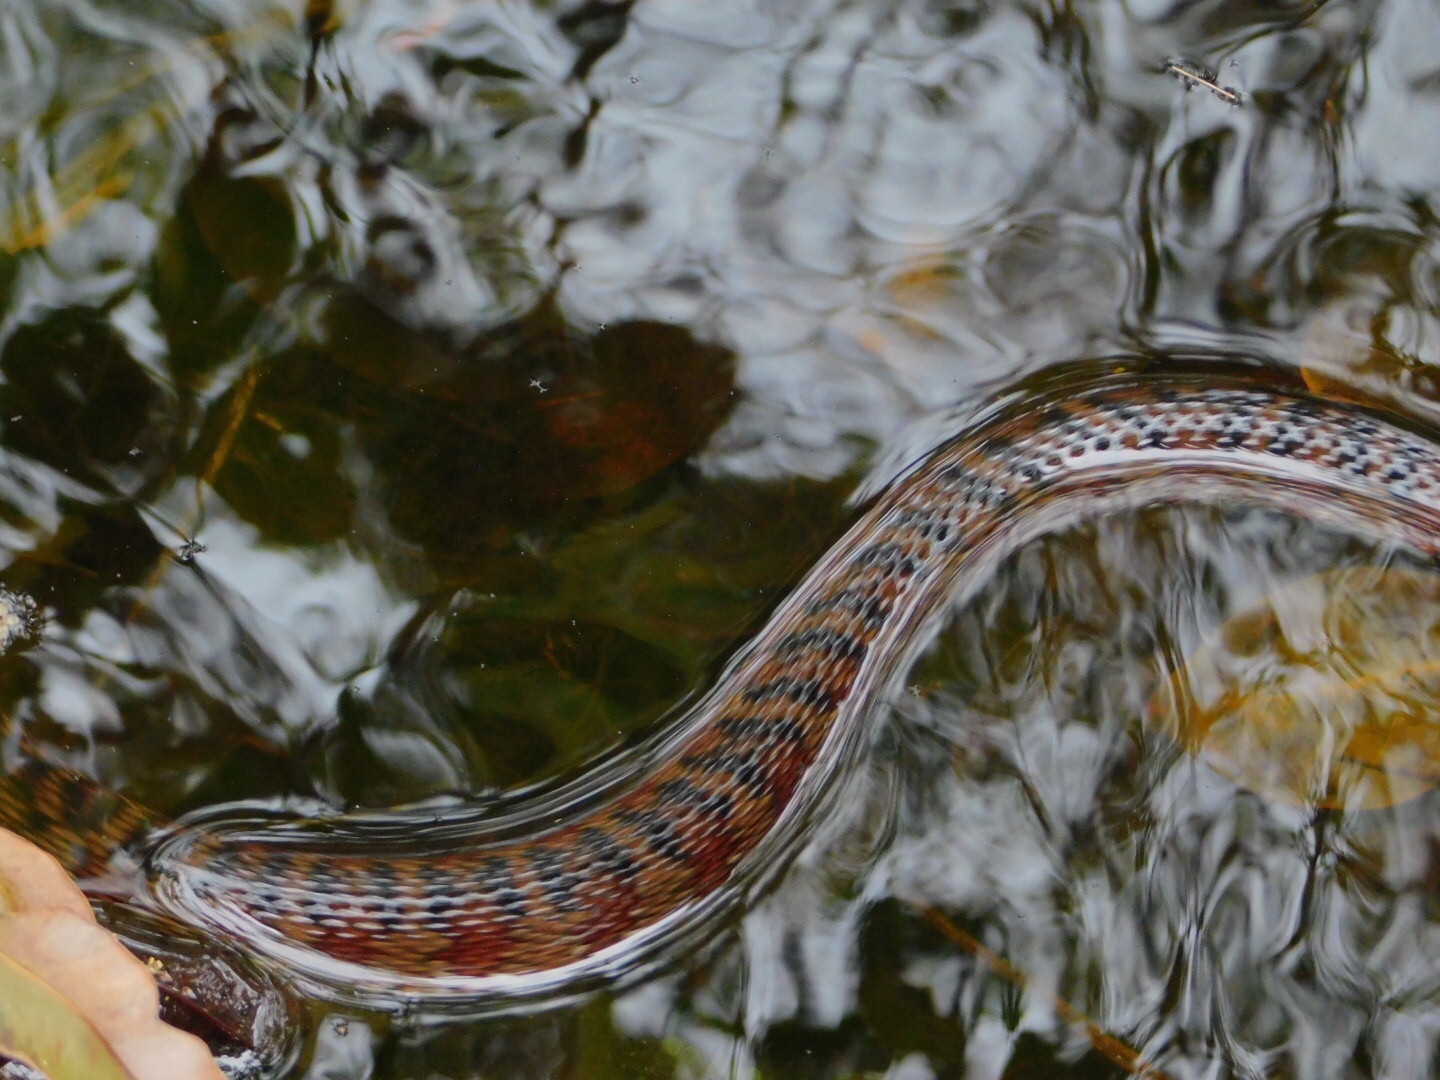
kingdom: Animalia
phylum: Chordata
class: Squamata
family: Colubridae
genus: Nerodia
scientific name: Nerodia fasciata
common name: Southern water snake
